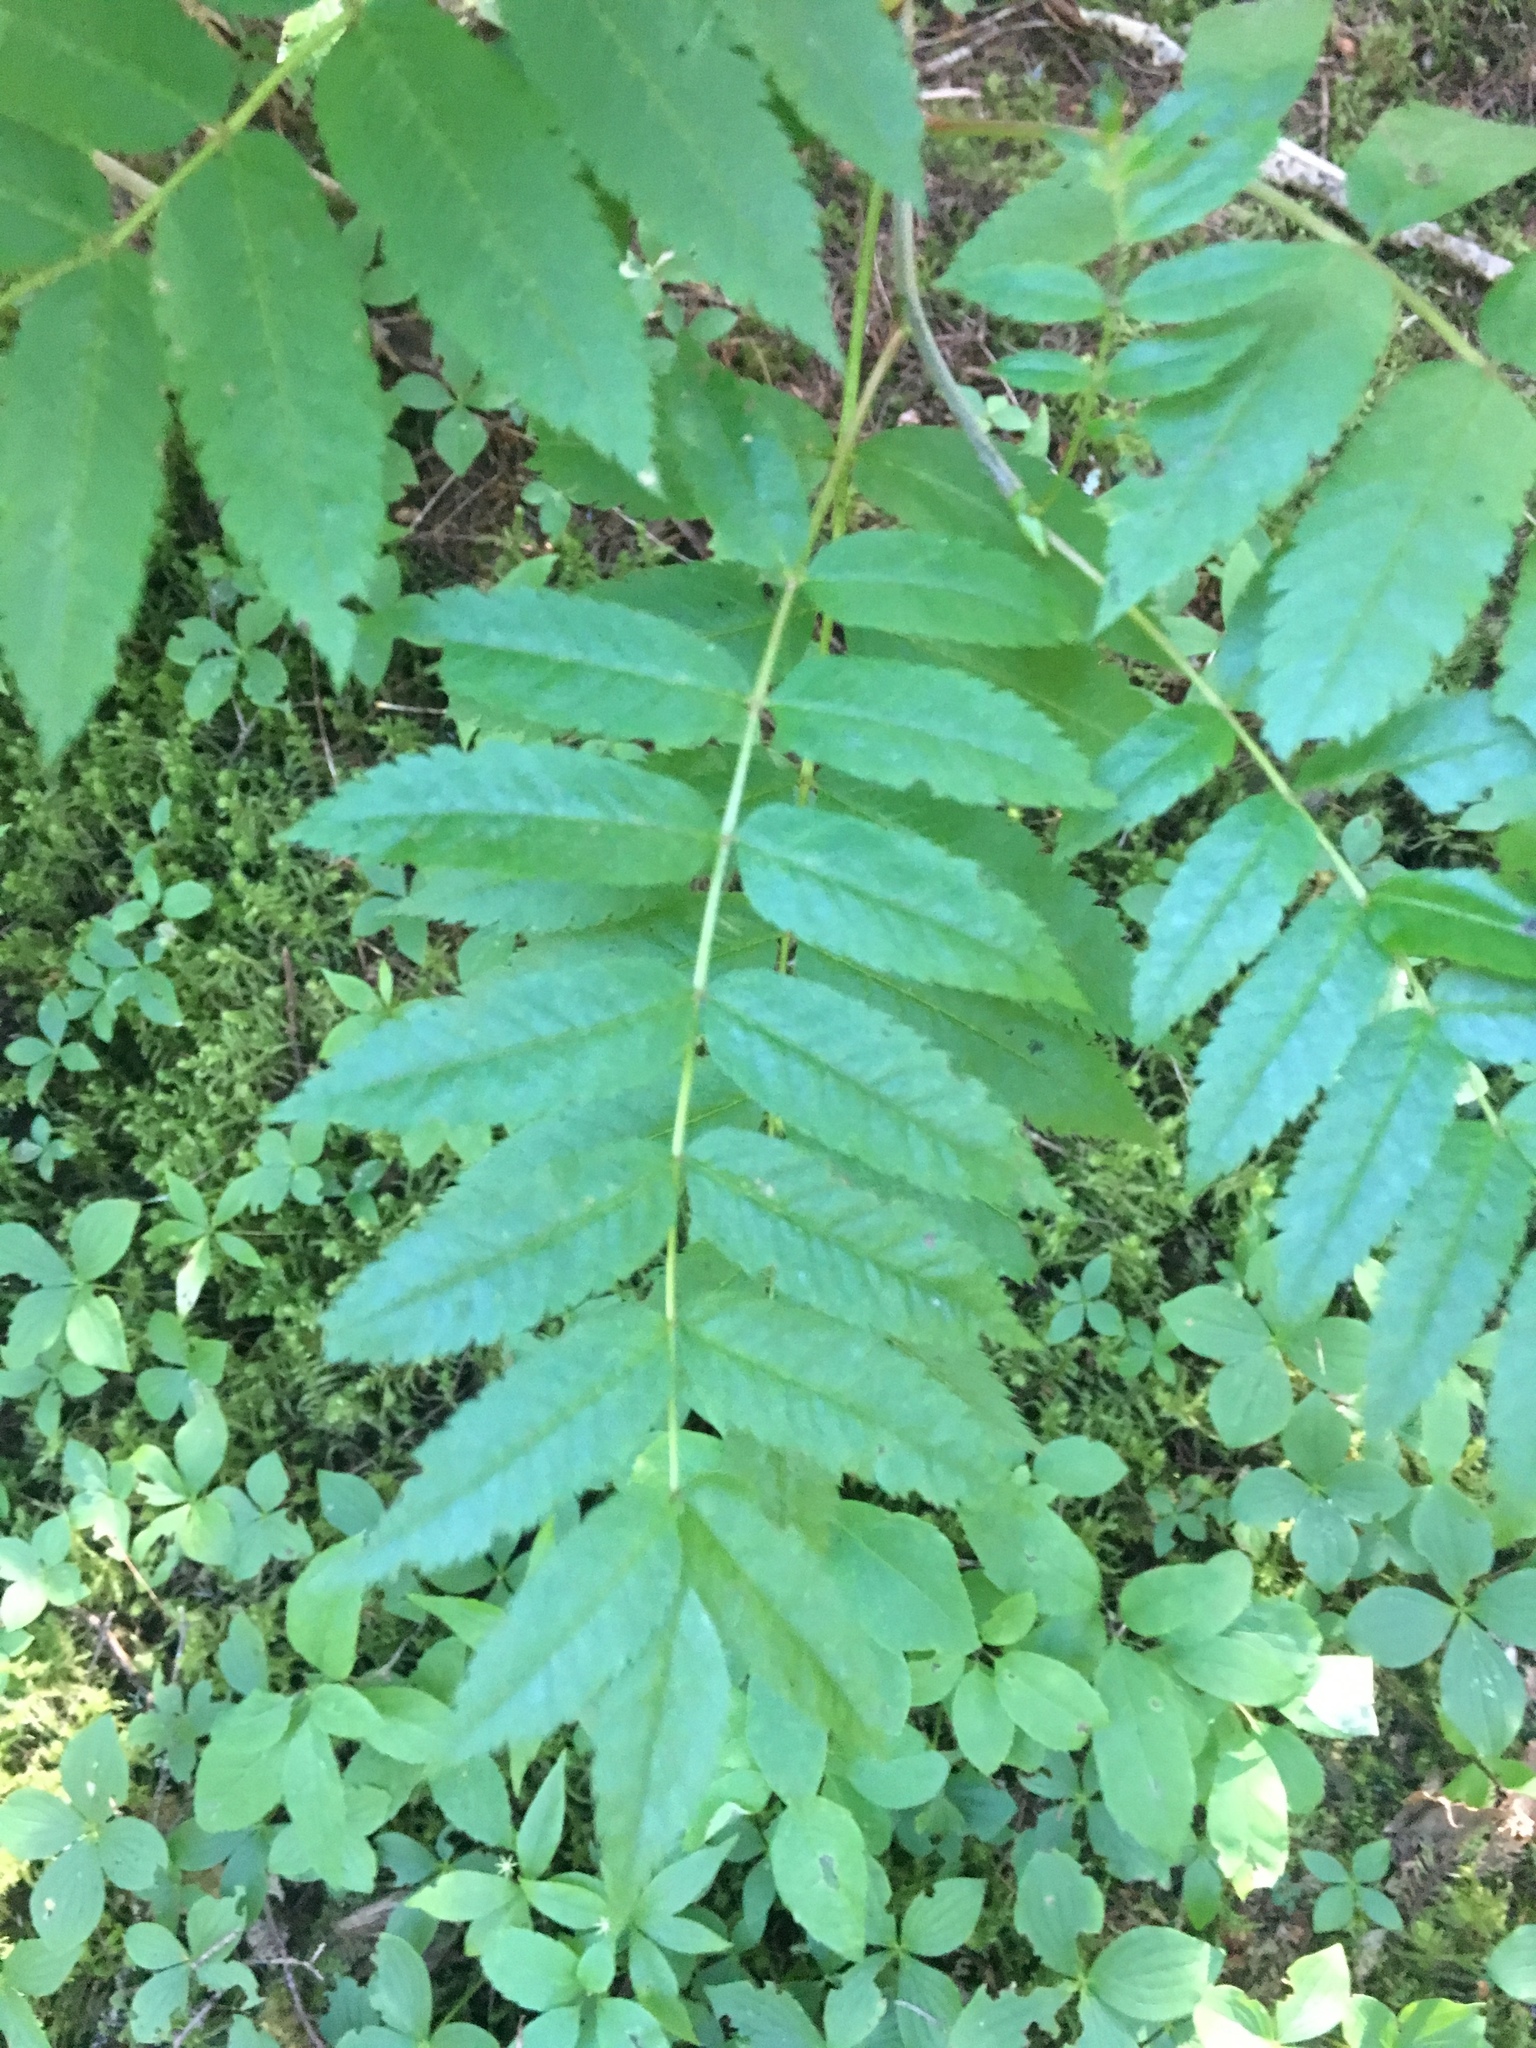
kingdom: Plantae
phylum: Tracheophyta
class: Magnoliopsida
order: Rosales
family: Rosaceae
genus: Sorbus
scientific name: Sorbus americana
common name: American mountain-ash
